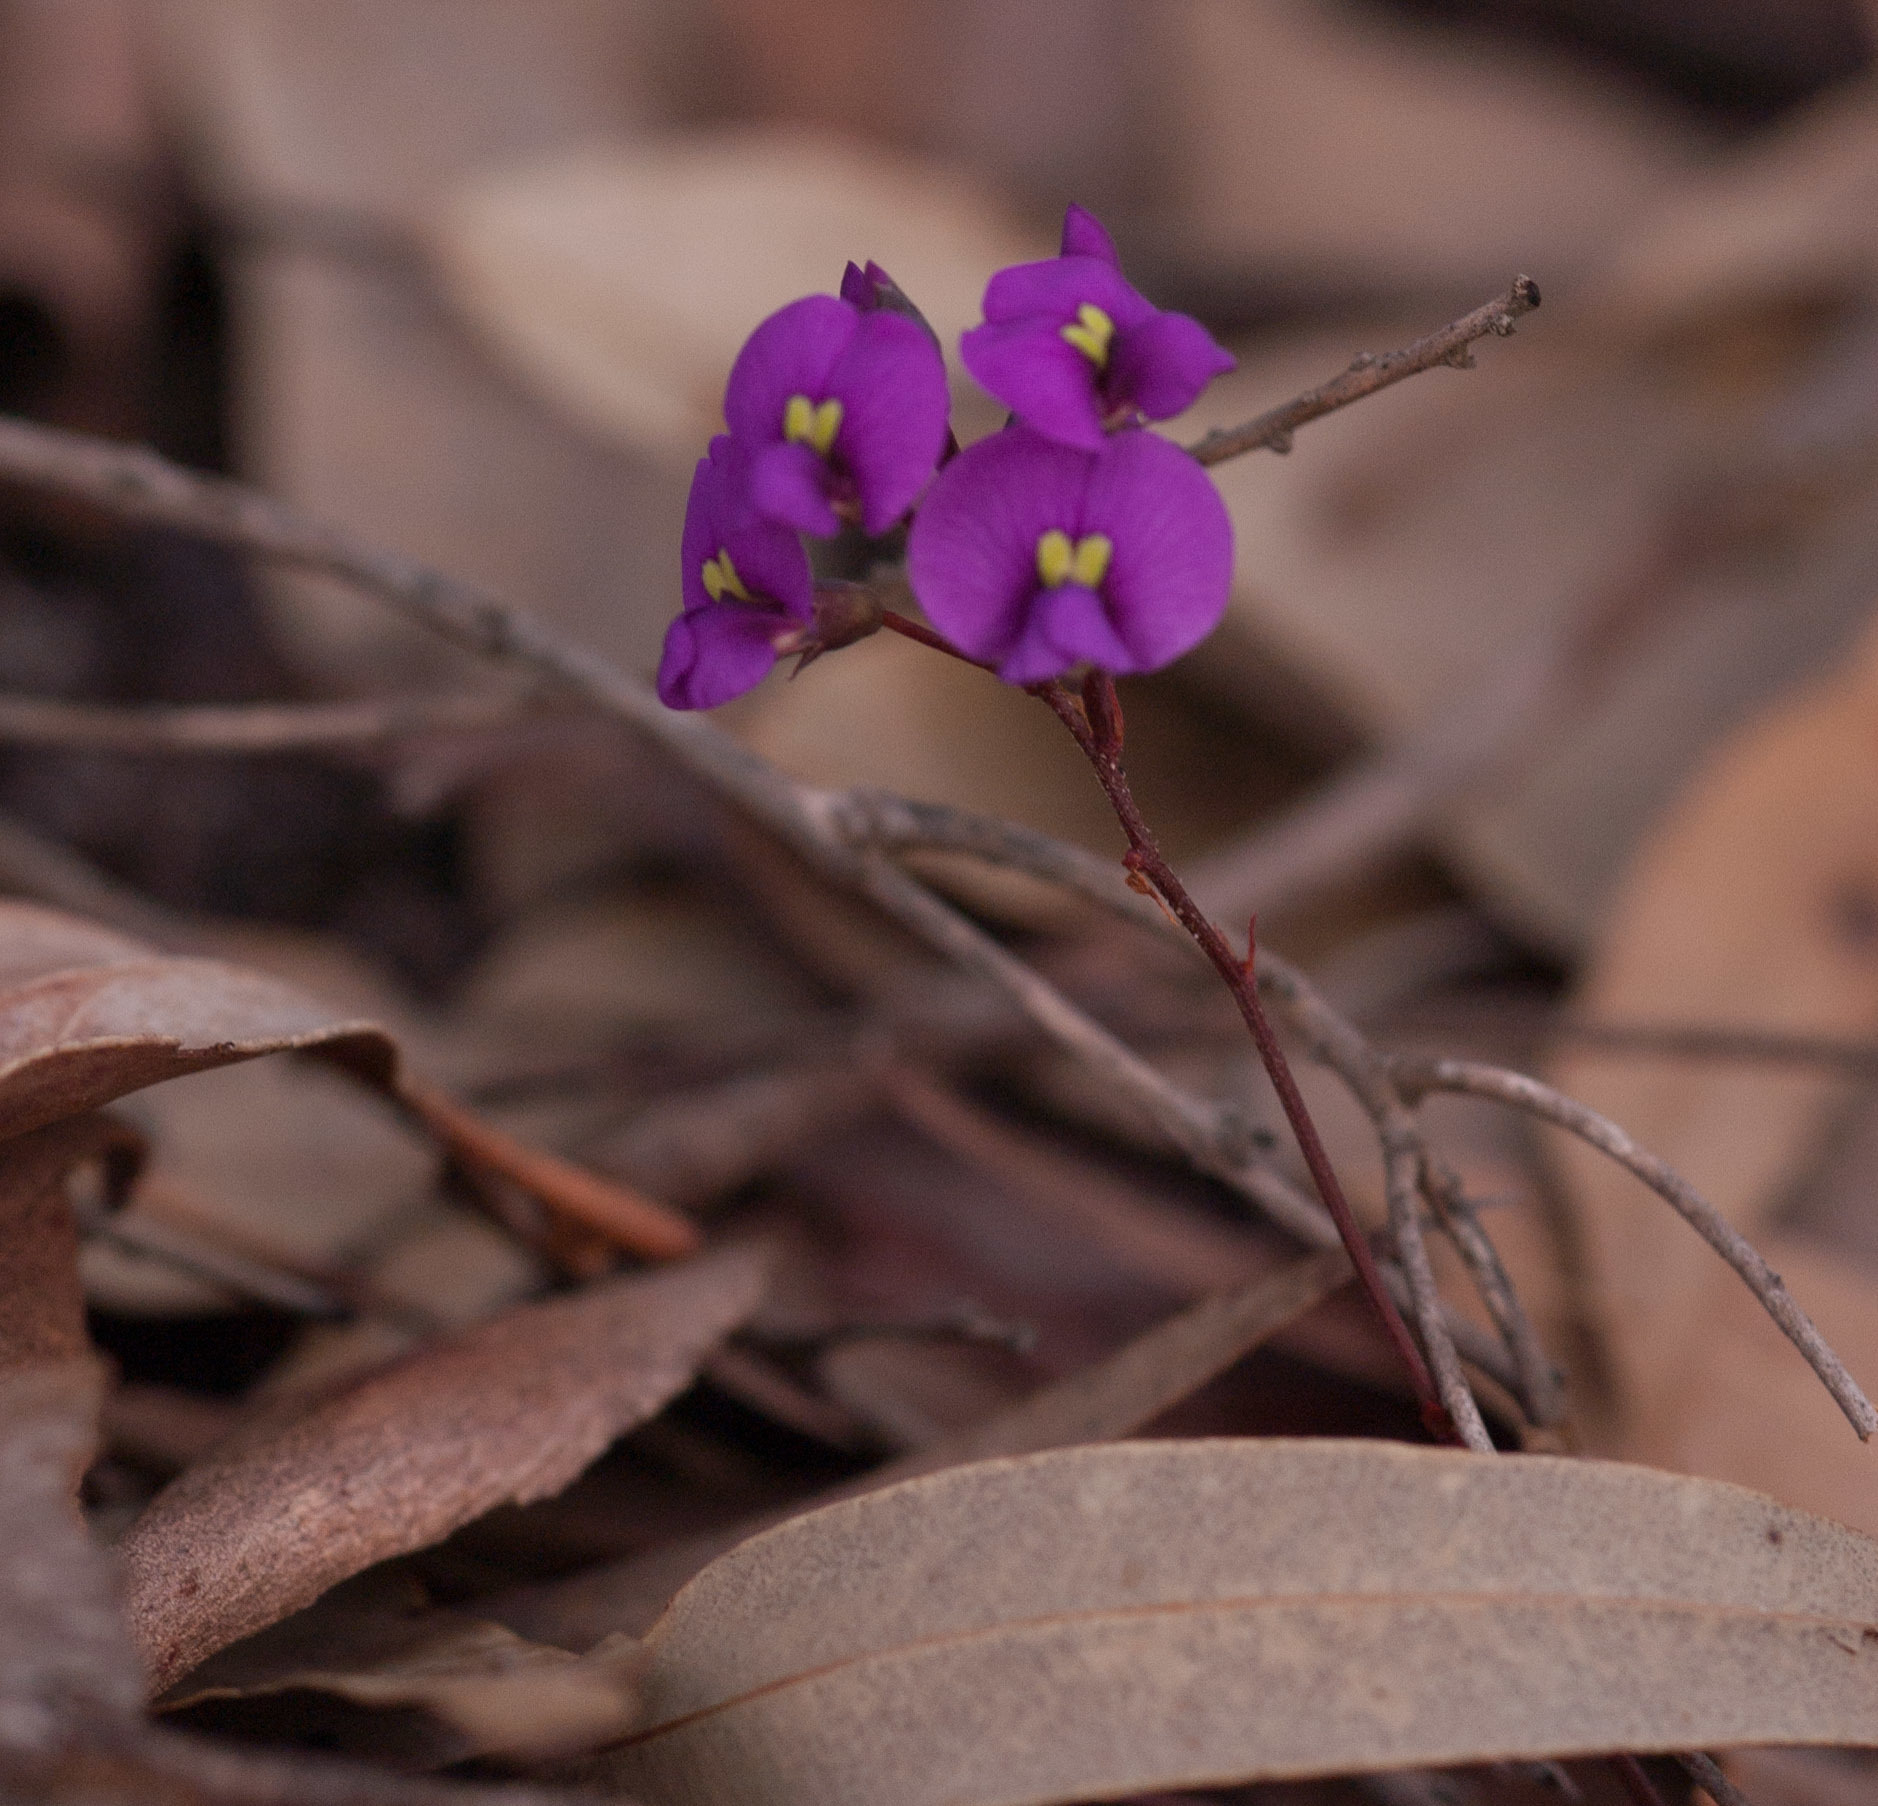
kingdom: Plantae
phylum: Tracheophyta
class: Magnoliopsida
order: Fabales
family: Fabaceae
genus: Hardenbergia
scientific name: Hardenbergia violacea
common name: Coral-pea
